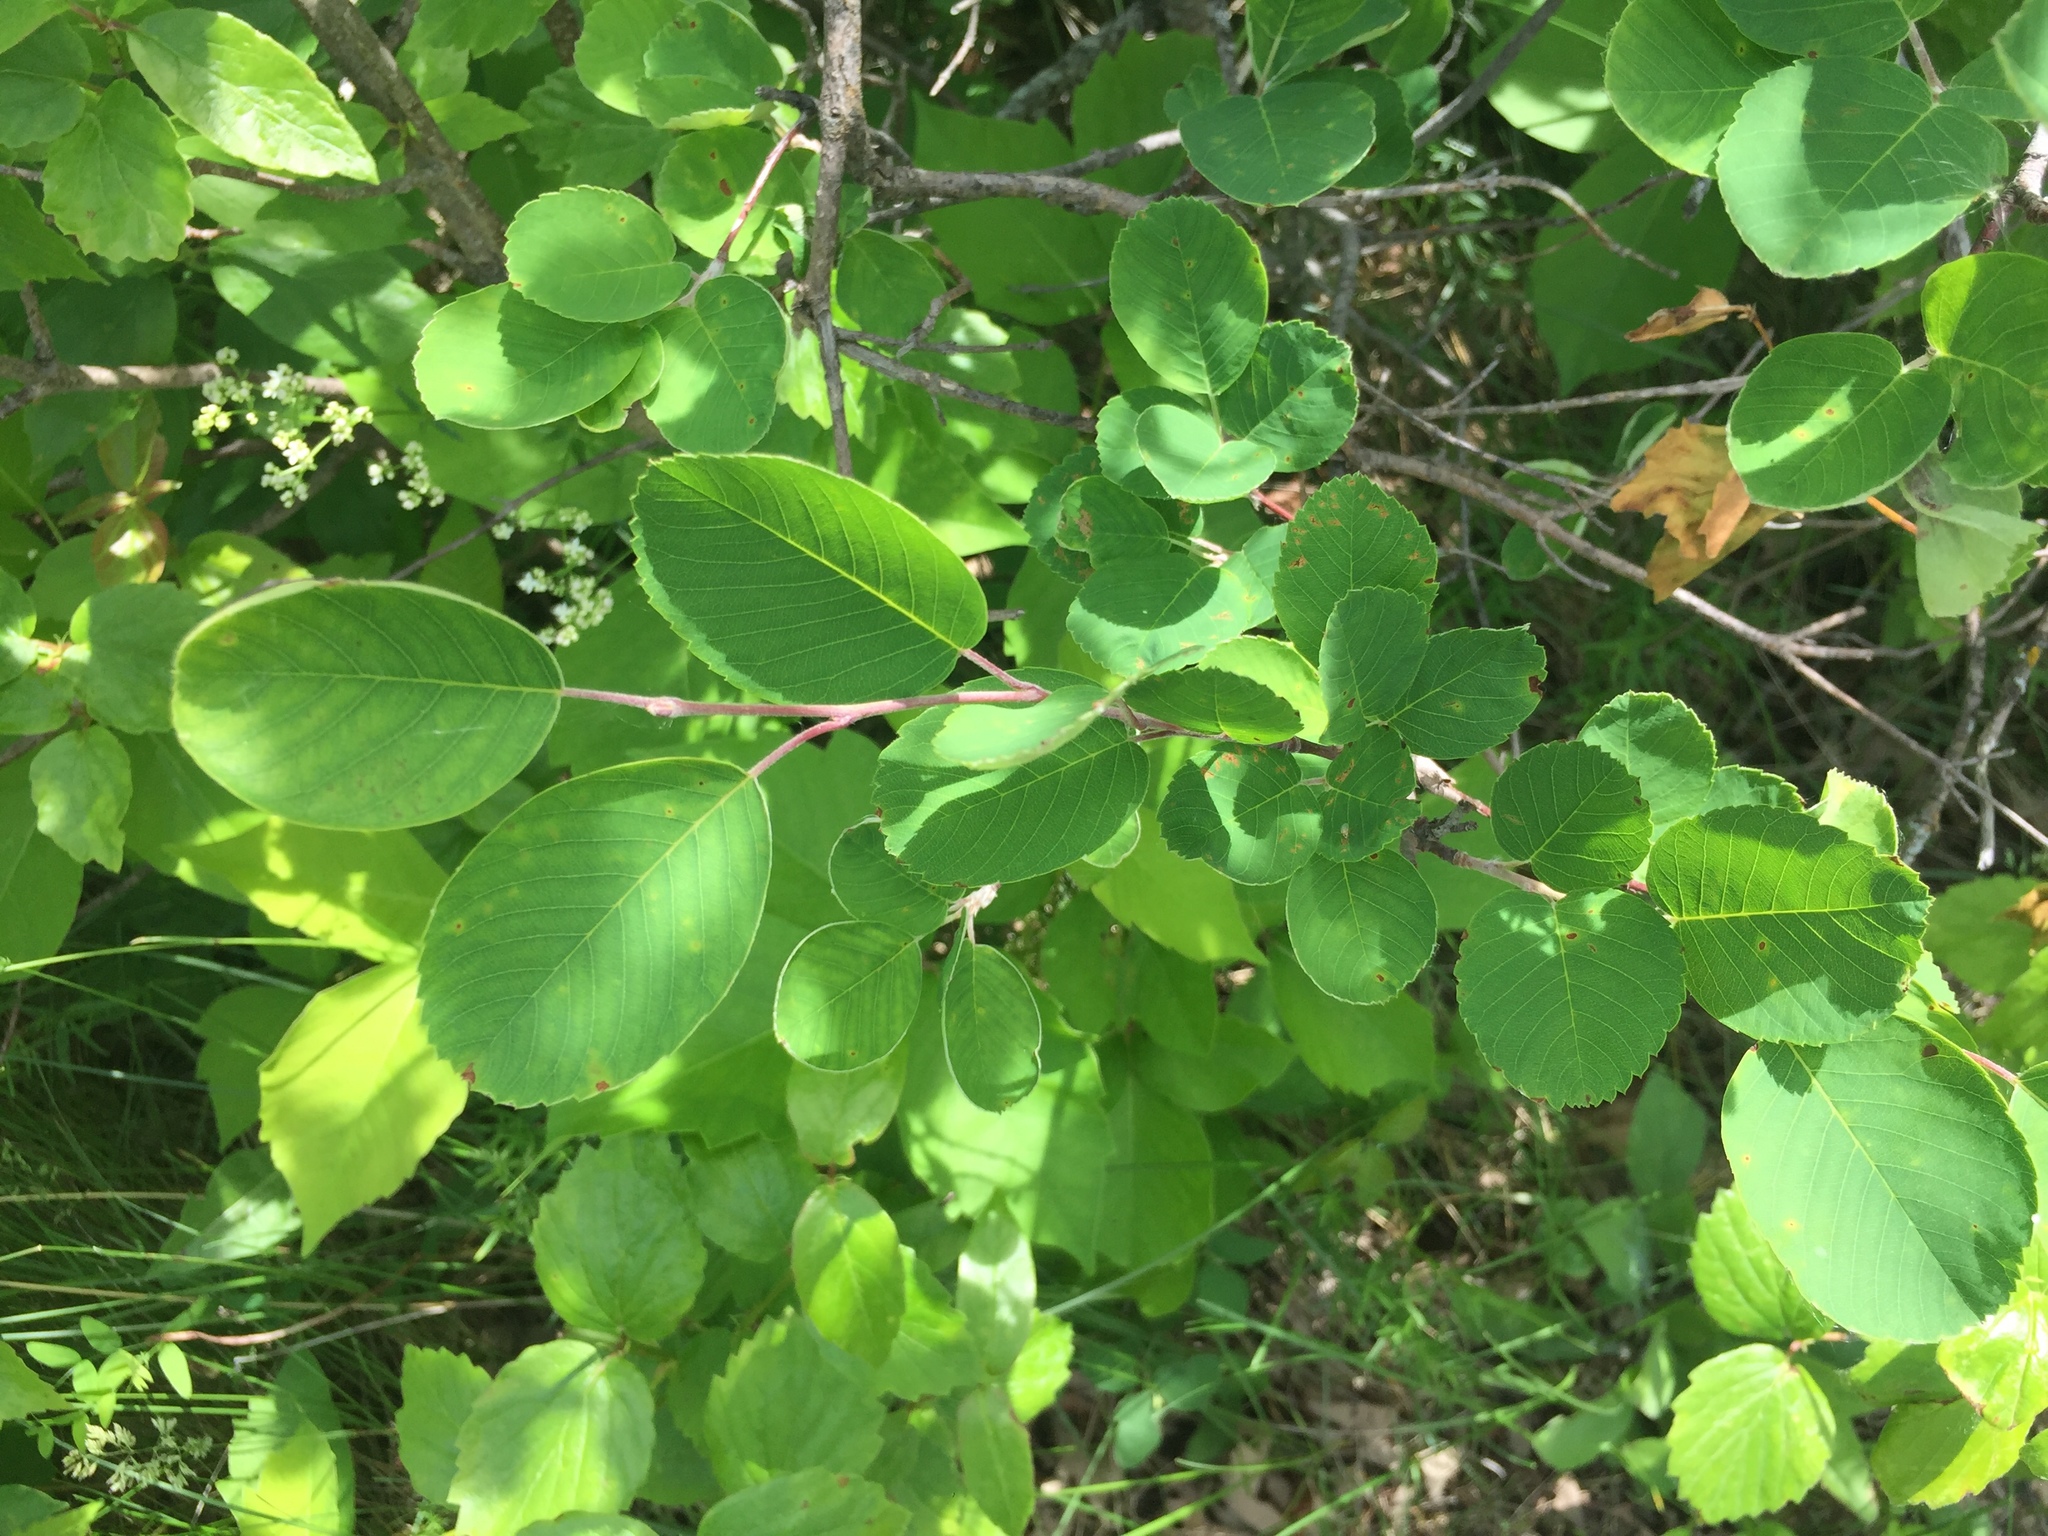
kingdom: Plantae
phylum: Tracheophyta
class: Magnoliopsida
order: Rosales
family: Rosaceae
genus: Amelanchier
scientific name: Amelanchier alnifolia
